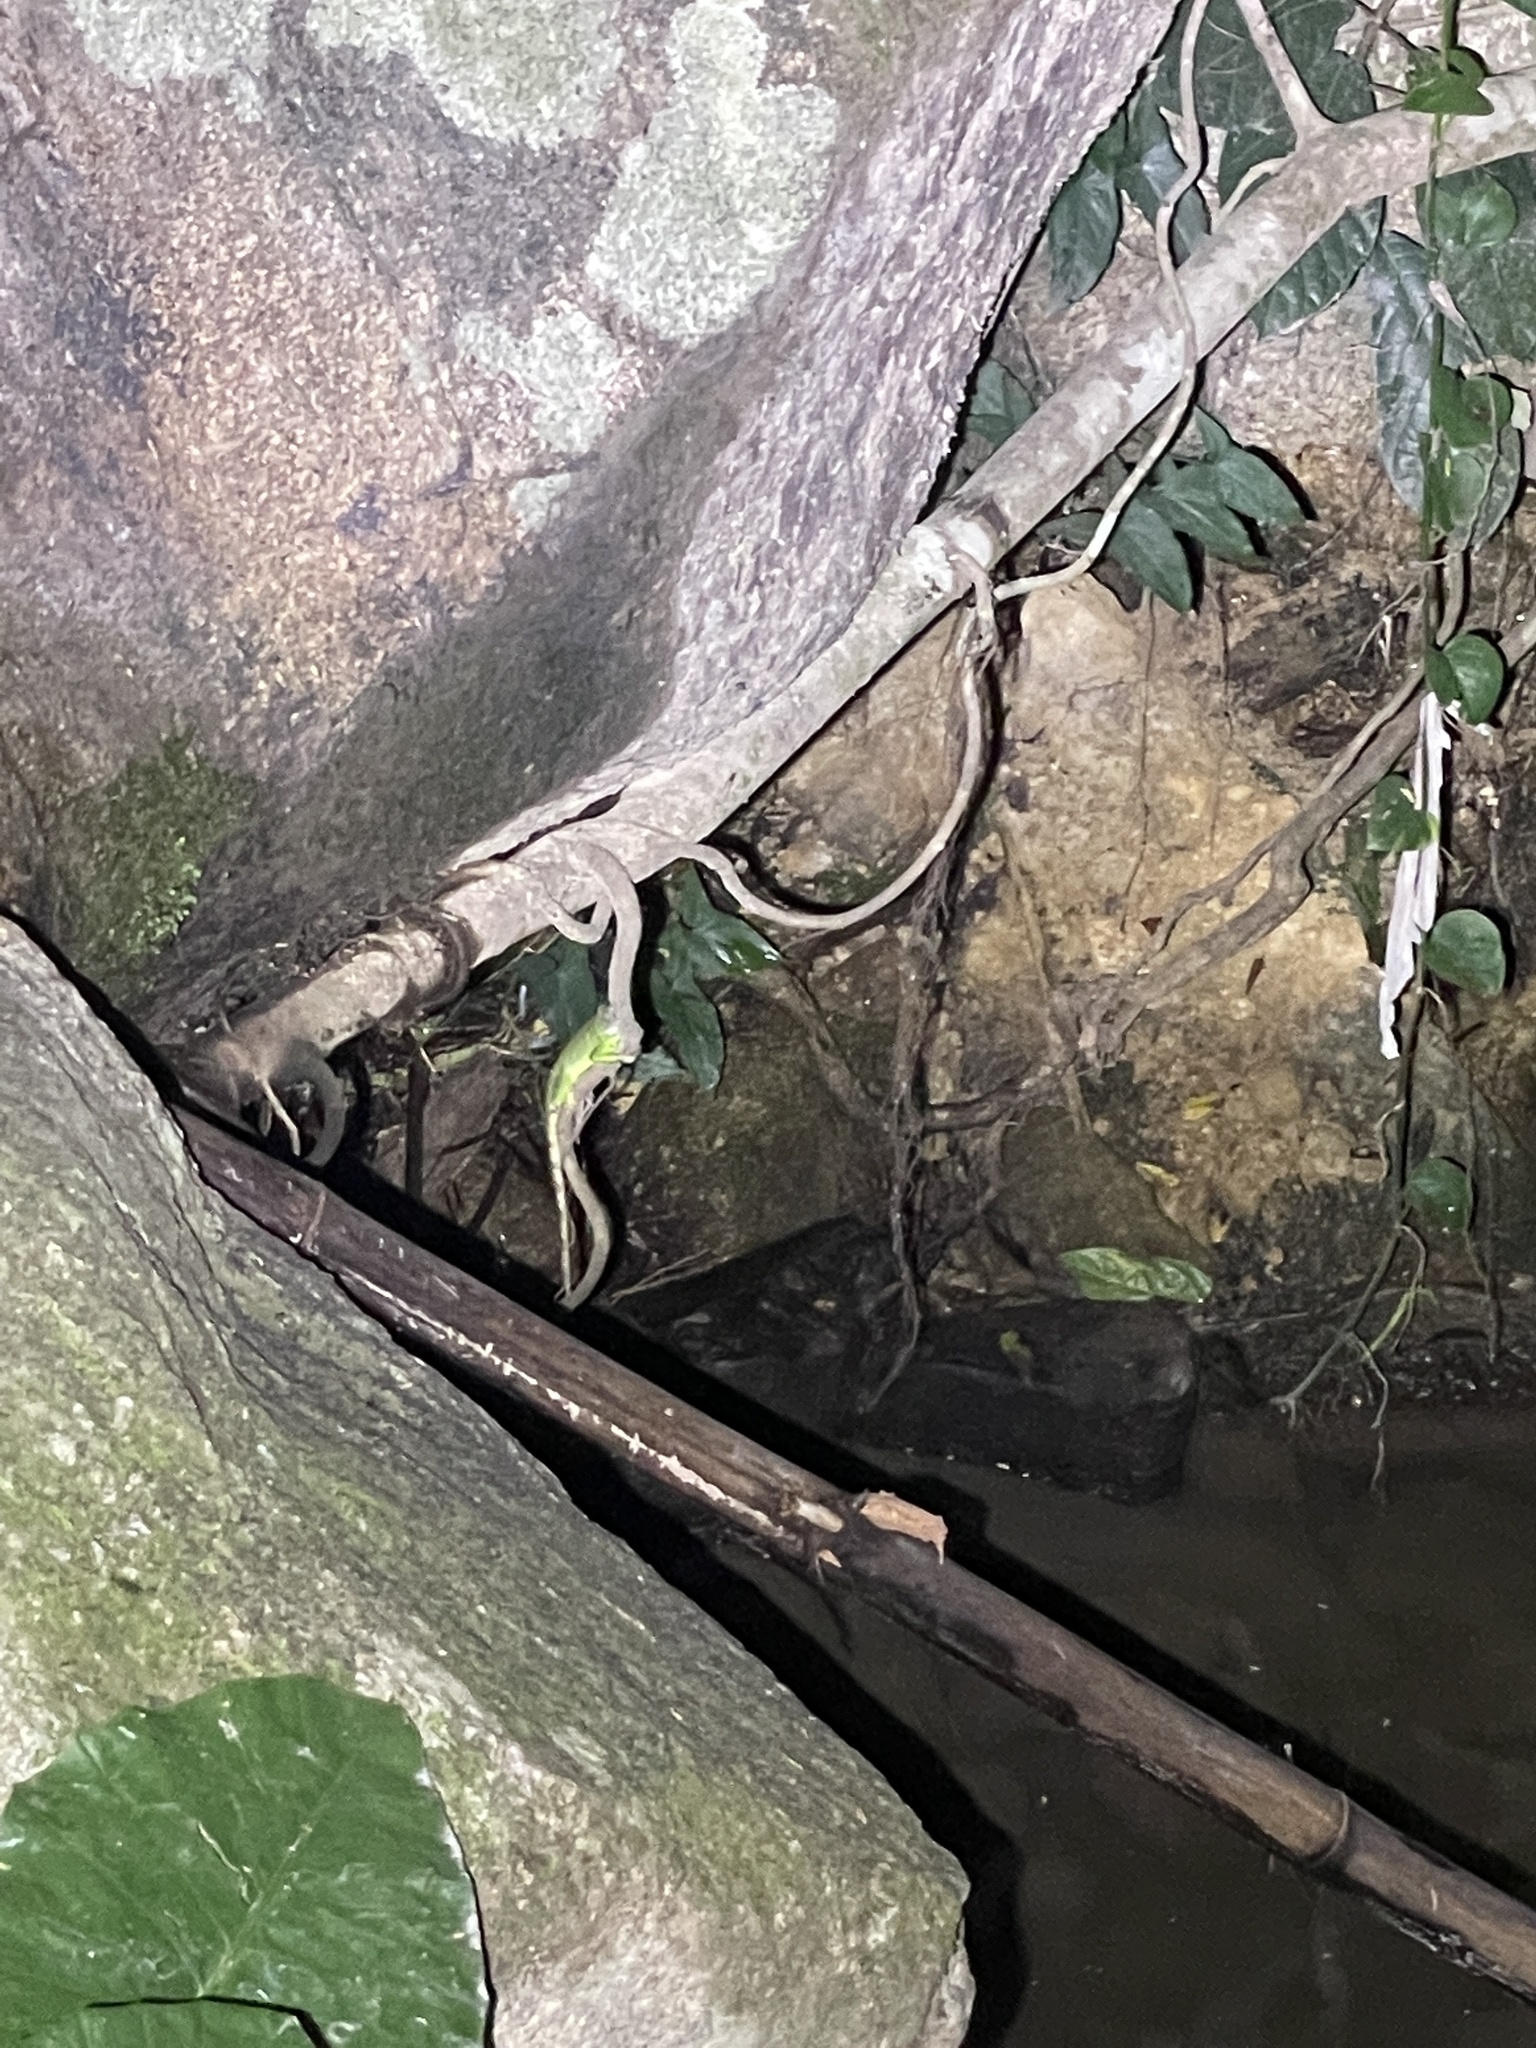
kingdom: Animalia
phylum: Chordata
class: Squamata
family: Agamidae
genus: Physignathus
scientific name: Physignathus cocincinus
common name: Asian water dragon
